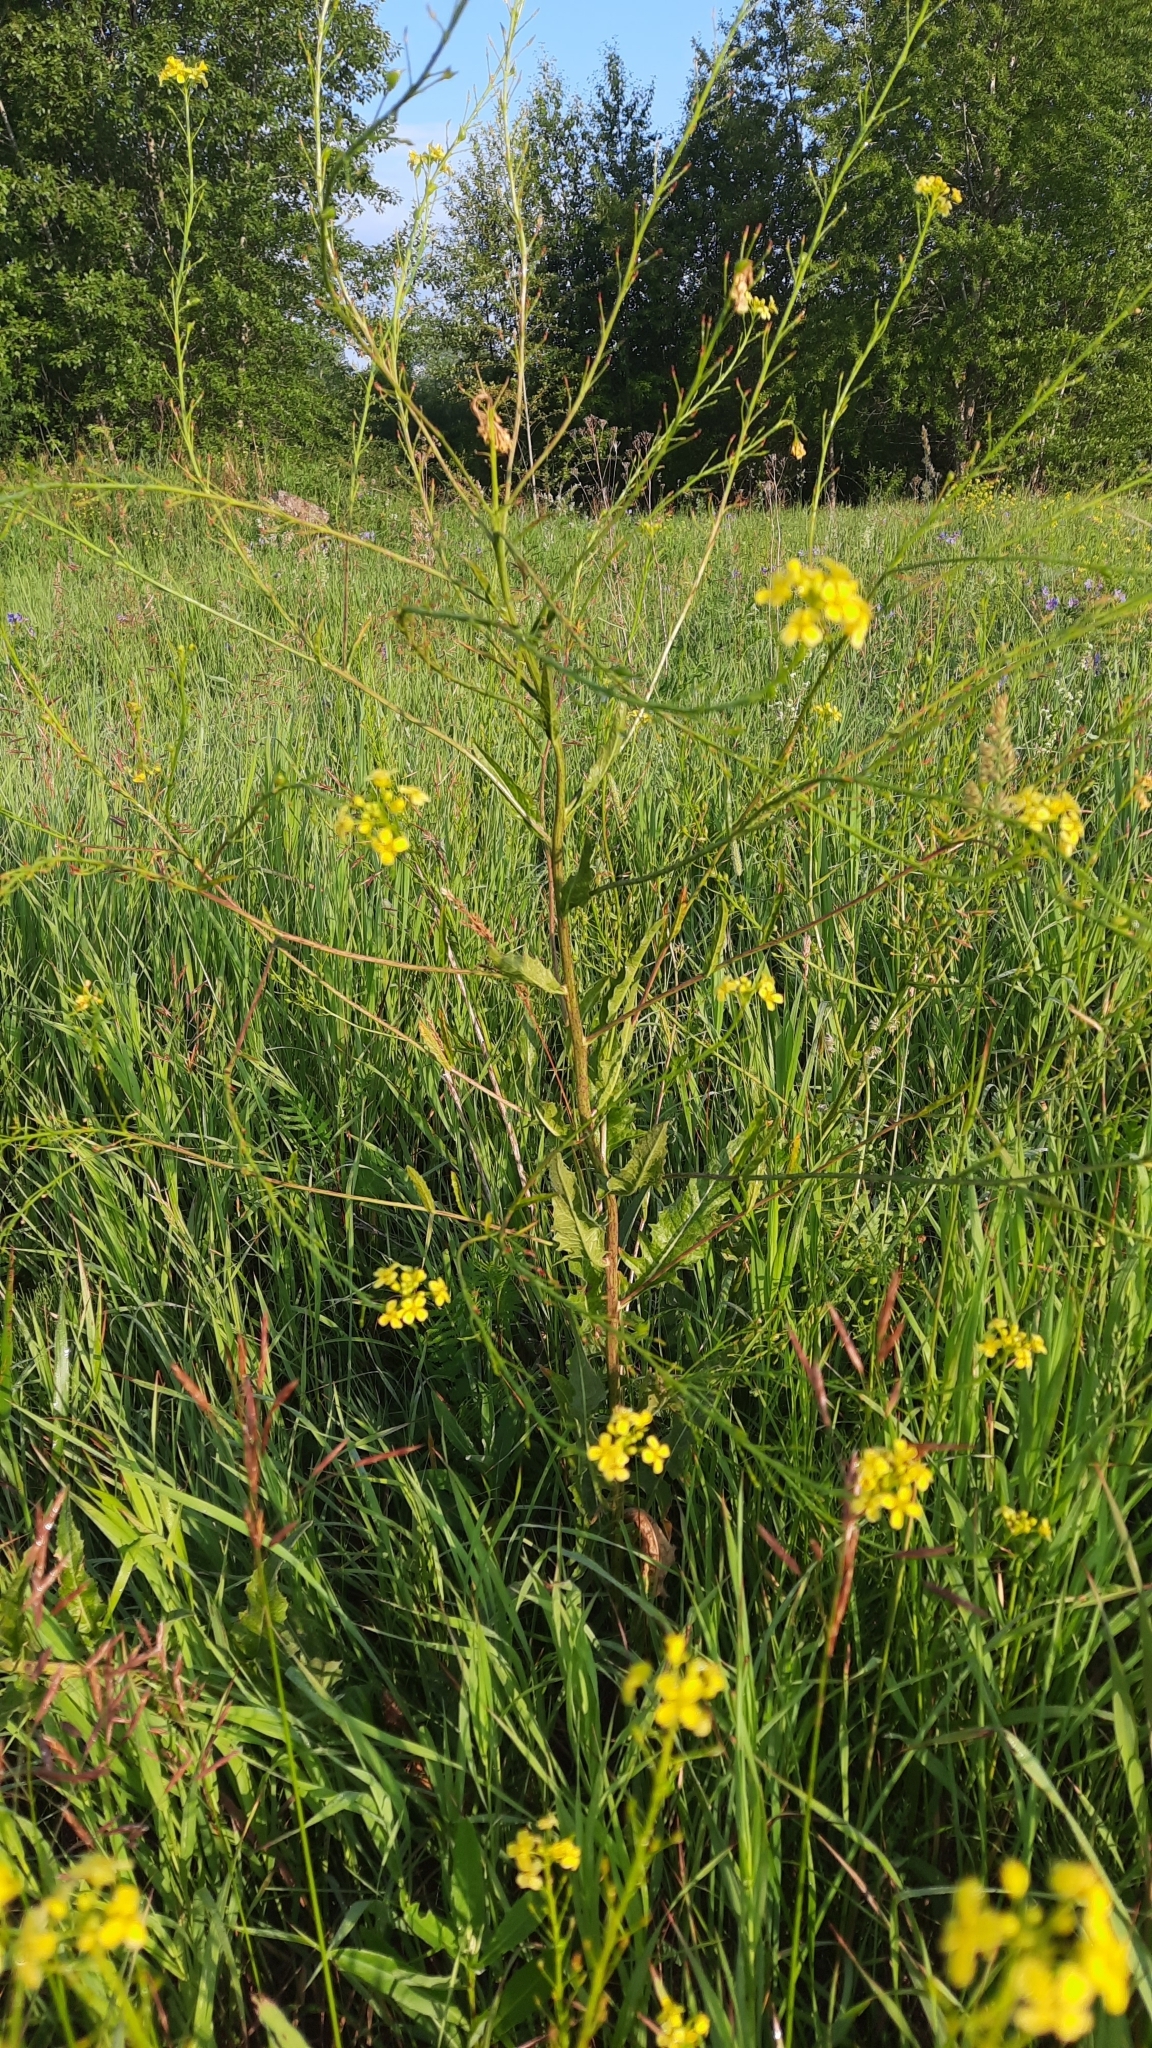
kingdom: Plantae
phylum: Tracheophyta
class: Magnoliopsida
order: Brassicales
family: Brassicaceae
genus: Bunias
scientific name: Bunias orientalis
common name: Warty-cabbage
